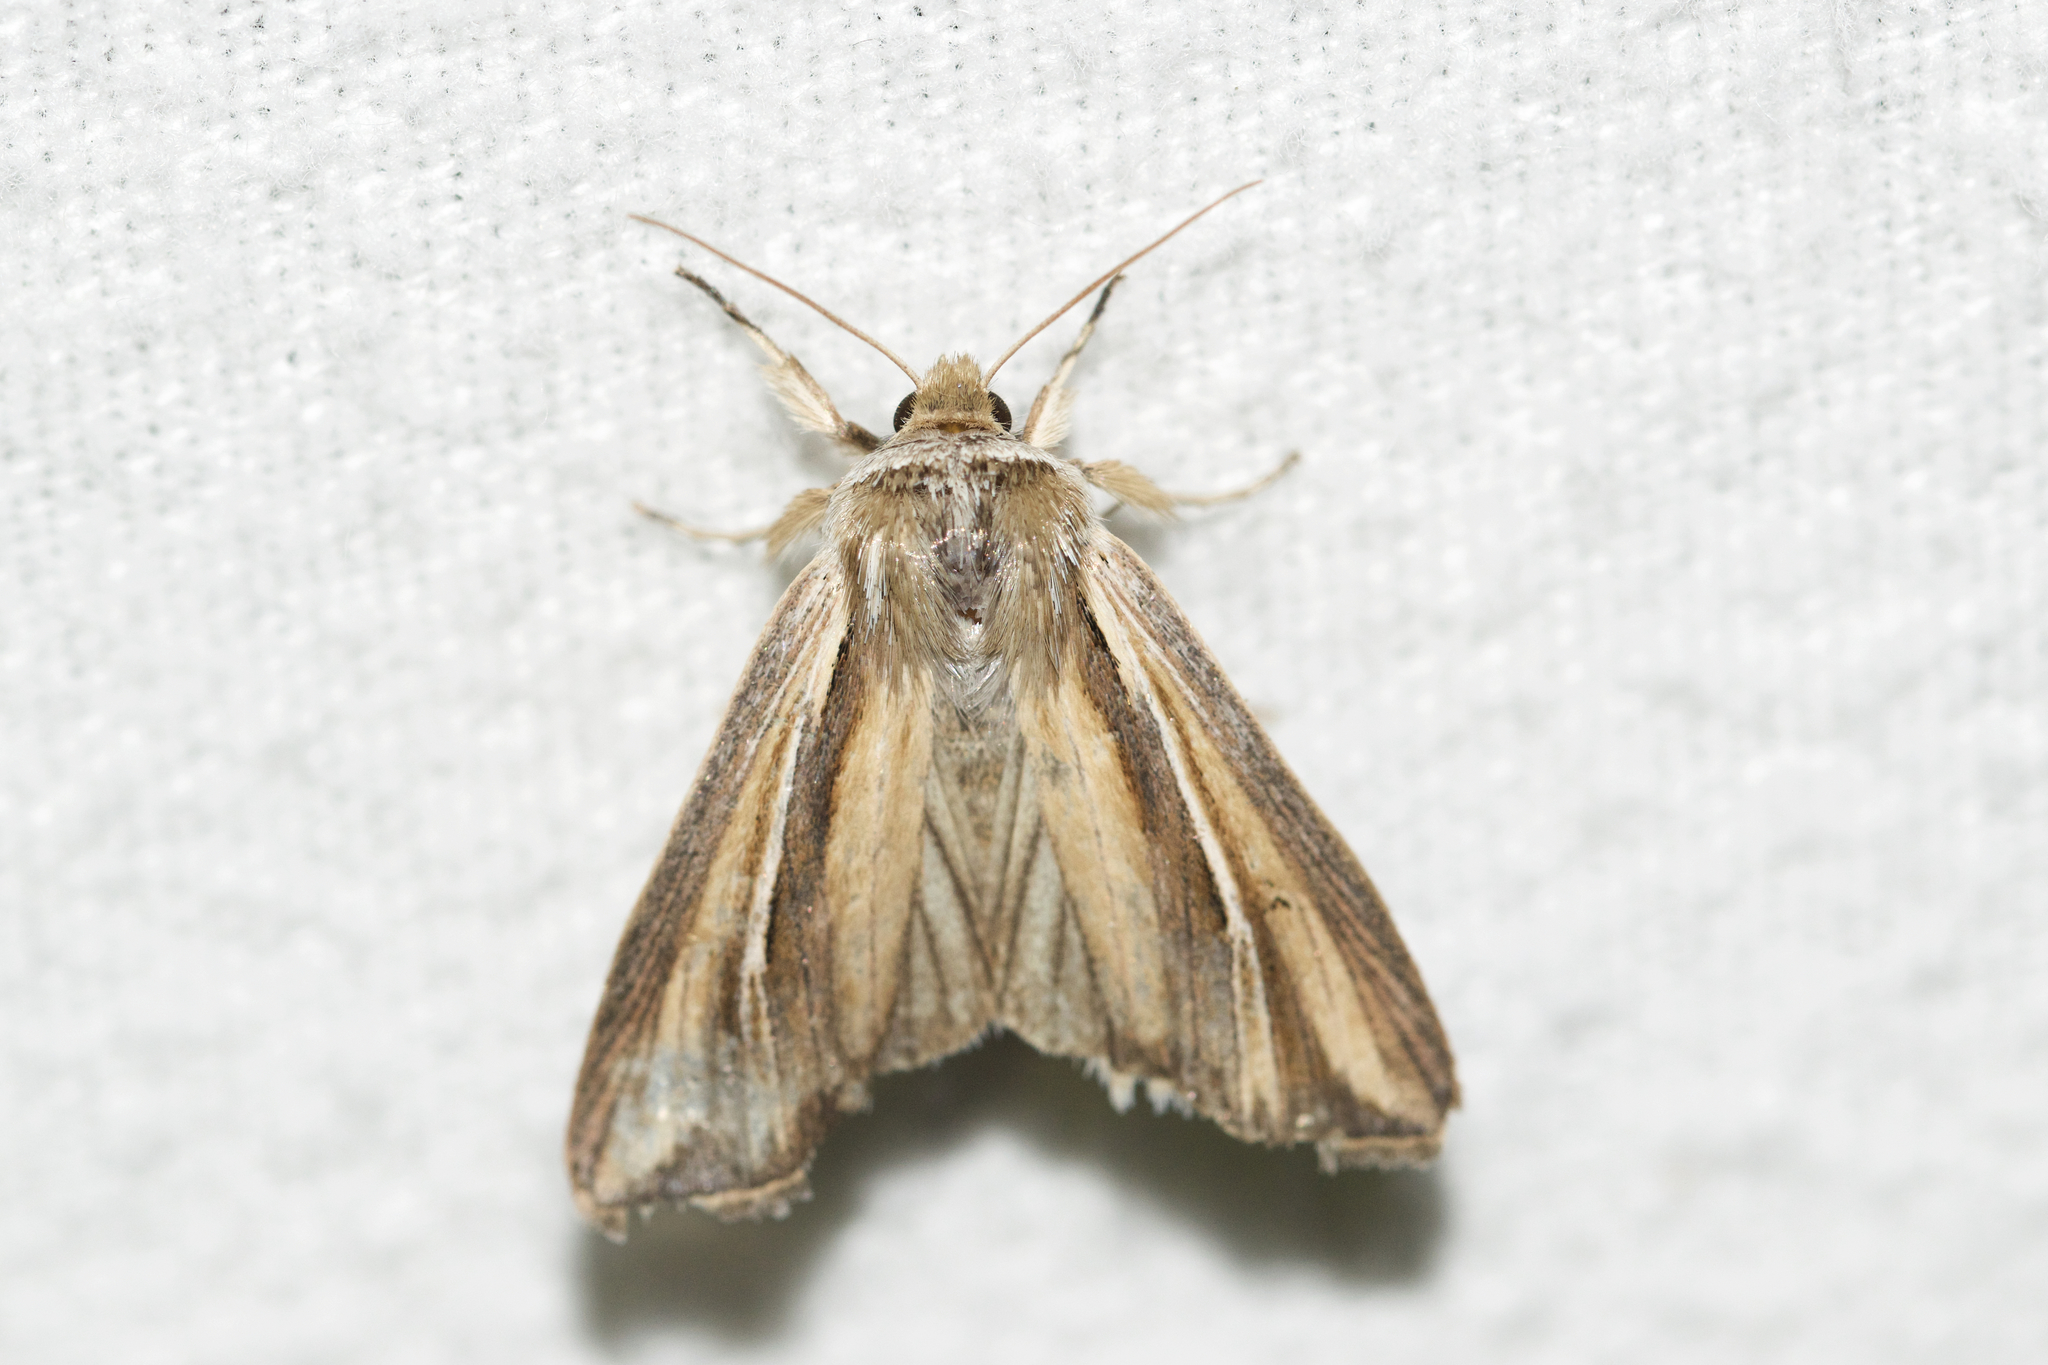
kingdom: Animalia
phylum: Arthropoda
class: Insecta
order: Lepidoptera
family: Noctuidae
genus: Dargida
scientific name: Dargida diffusa
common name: Wheat head armyworm
